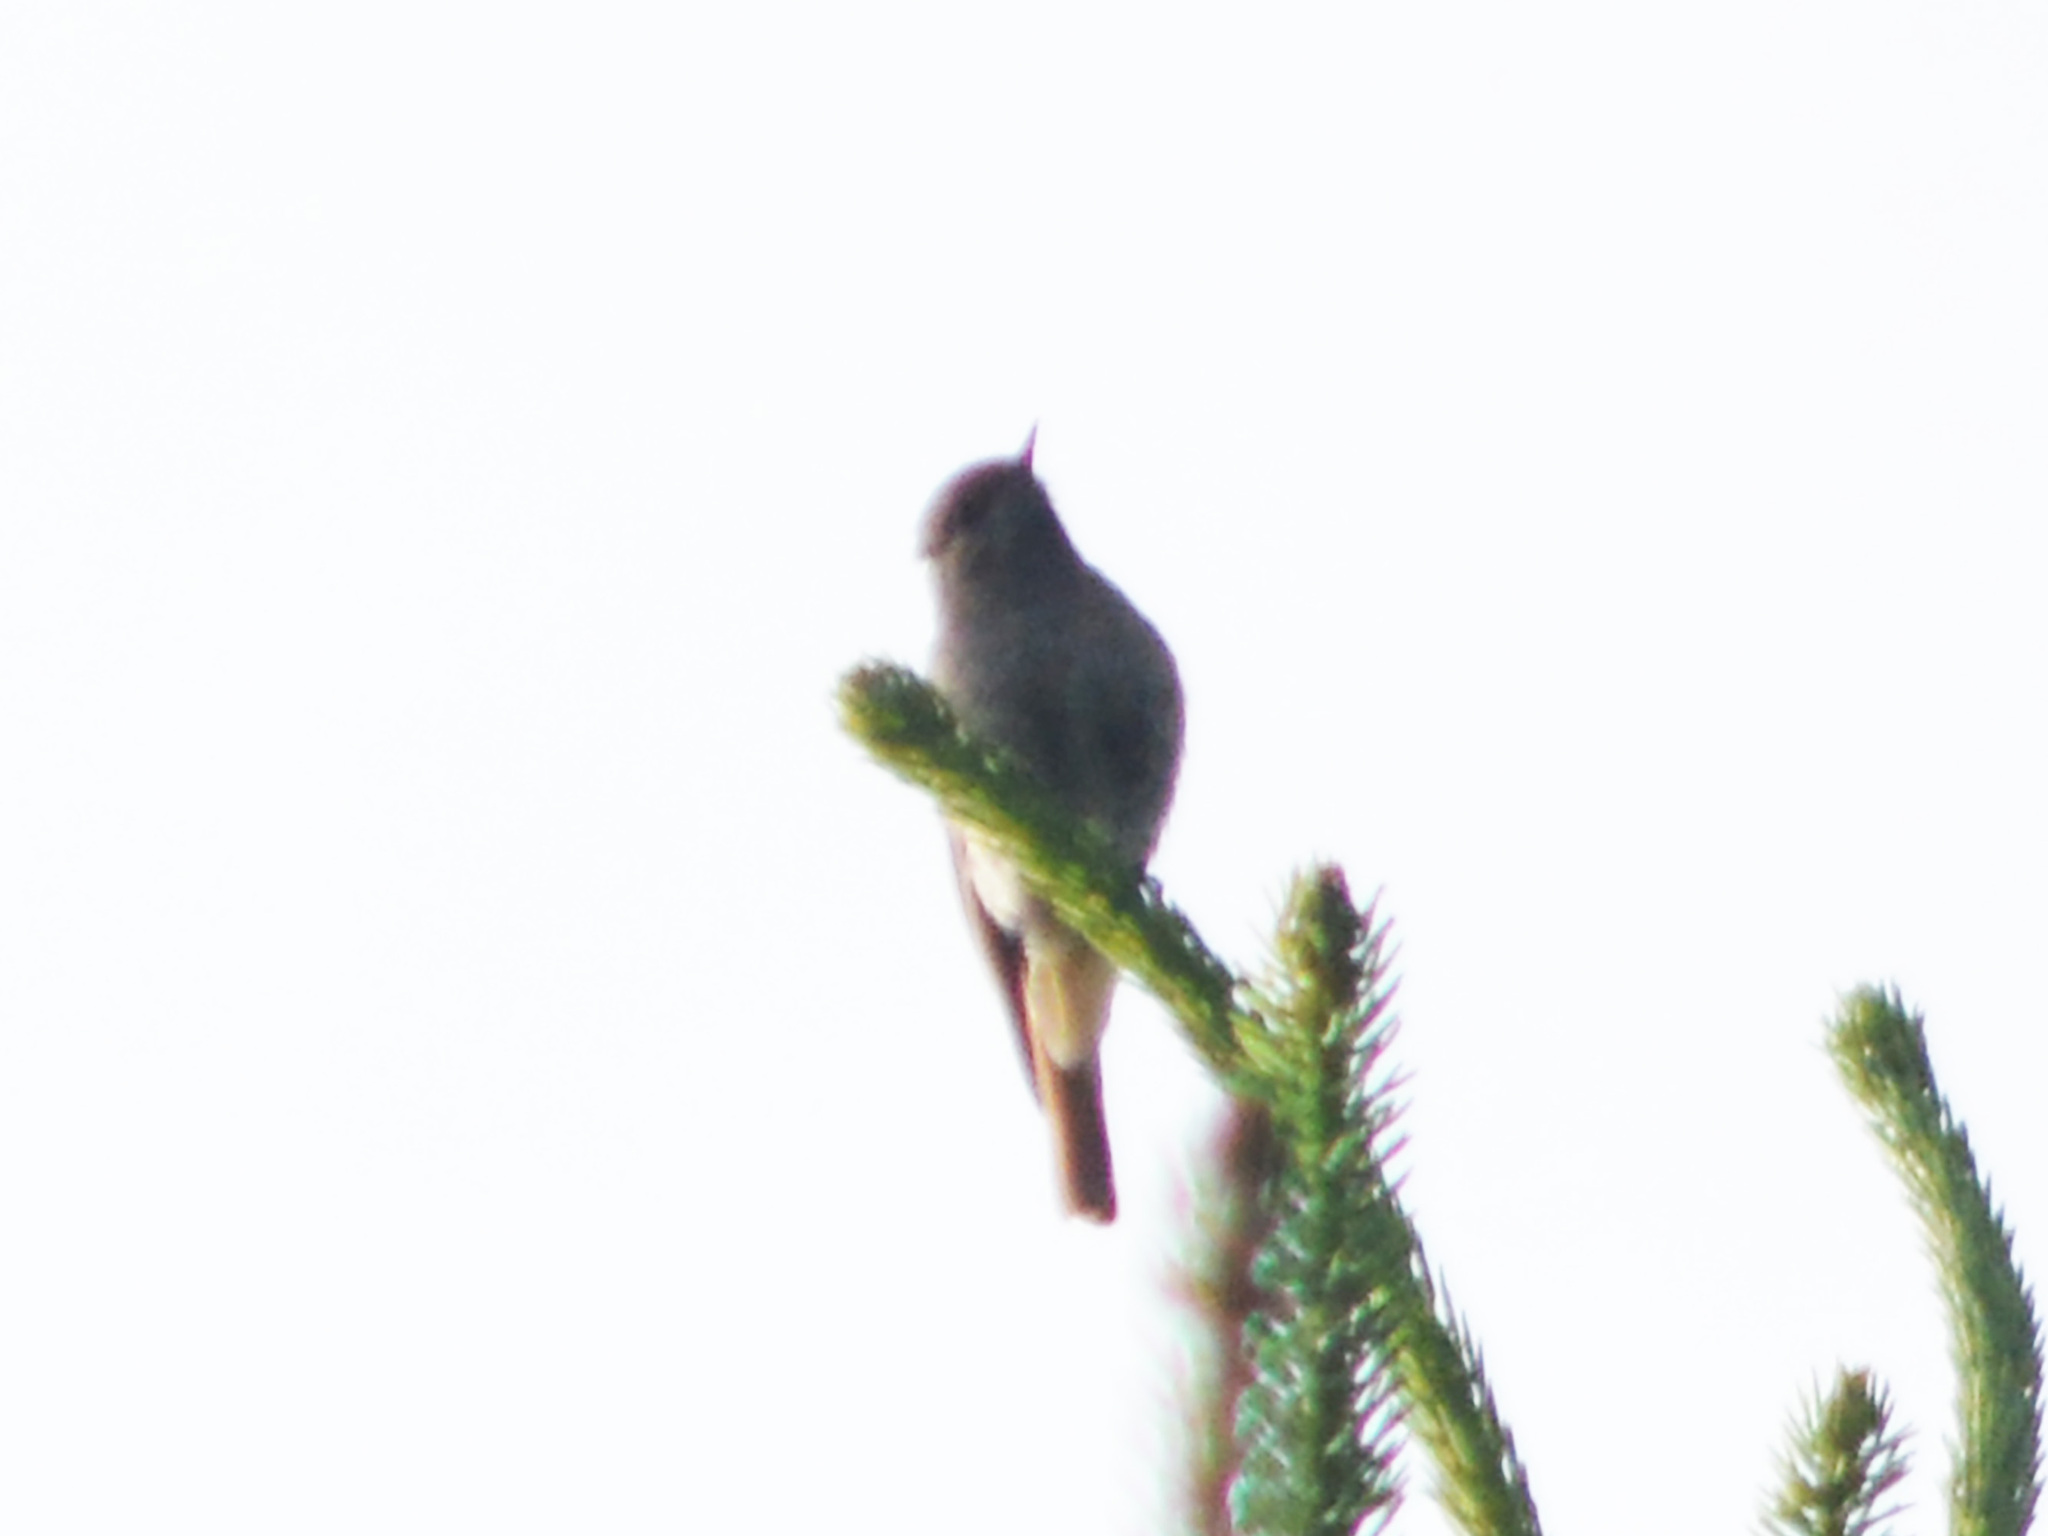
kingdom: Animalia
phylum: Chordata
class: Aves
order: Passeriformes
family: Muscicapidae
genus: Phoenicurus
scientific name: Phoenicurus ochruros
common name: Black redstart
